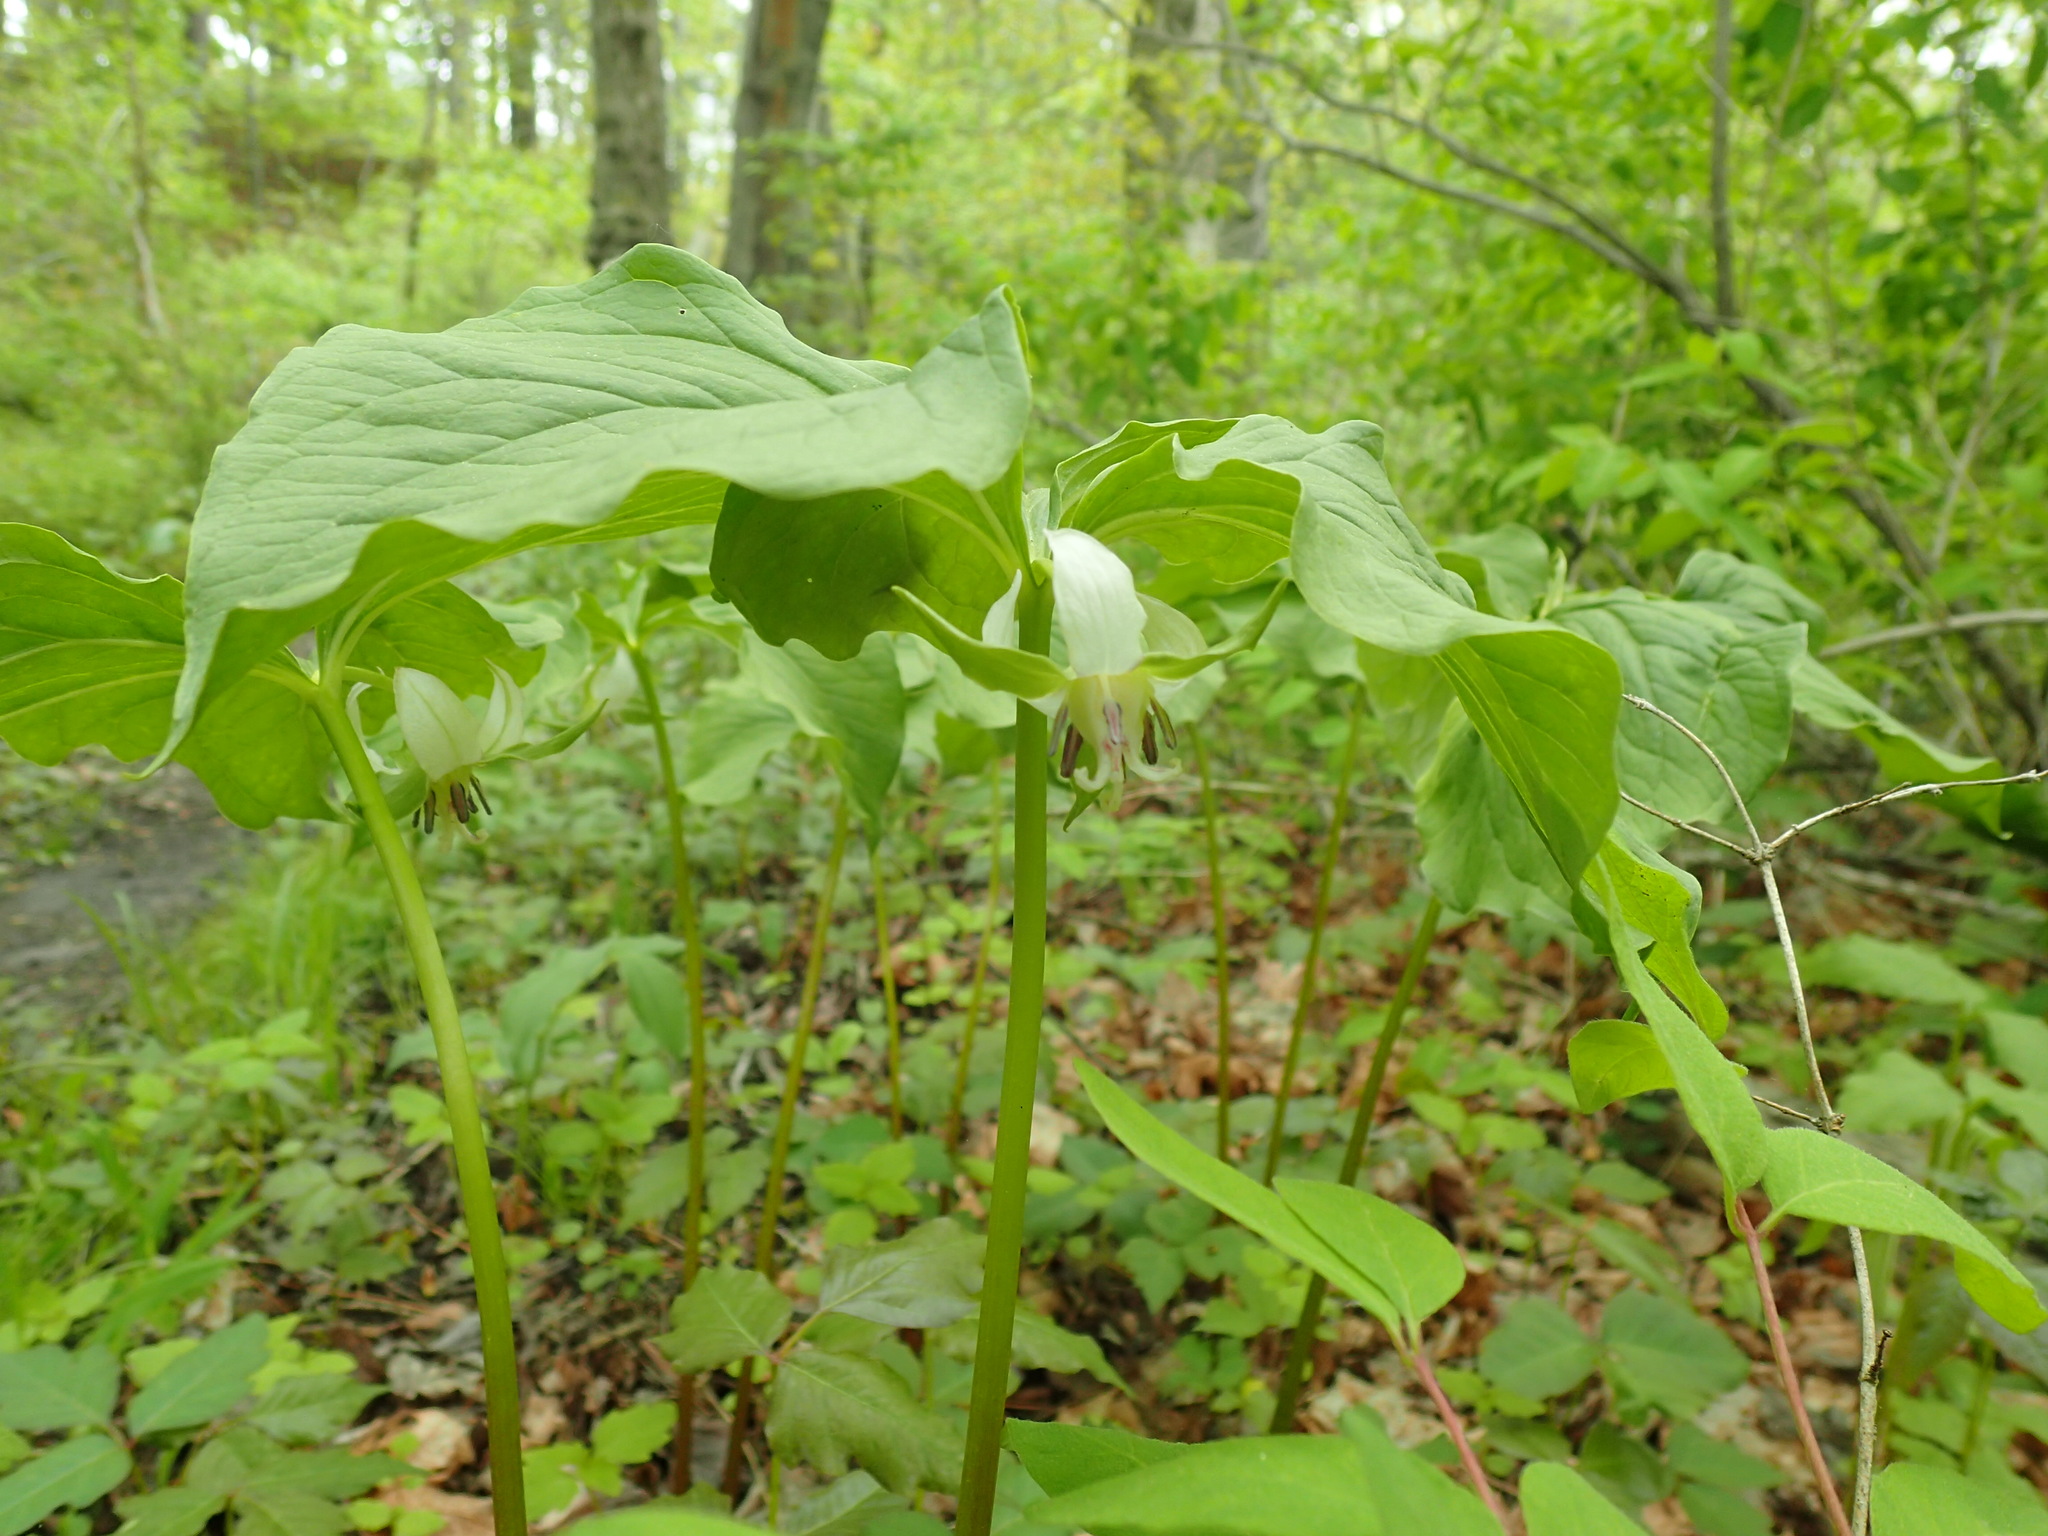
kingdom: Plantae
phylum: Tracheophyta
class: Liliopsida
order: Liliales
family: Melanthiaceae
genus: Trillium
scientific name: Trillium cernuum
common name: Nodding trillium
